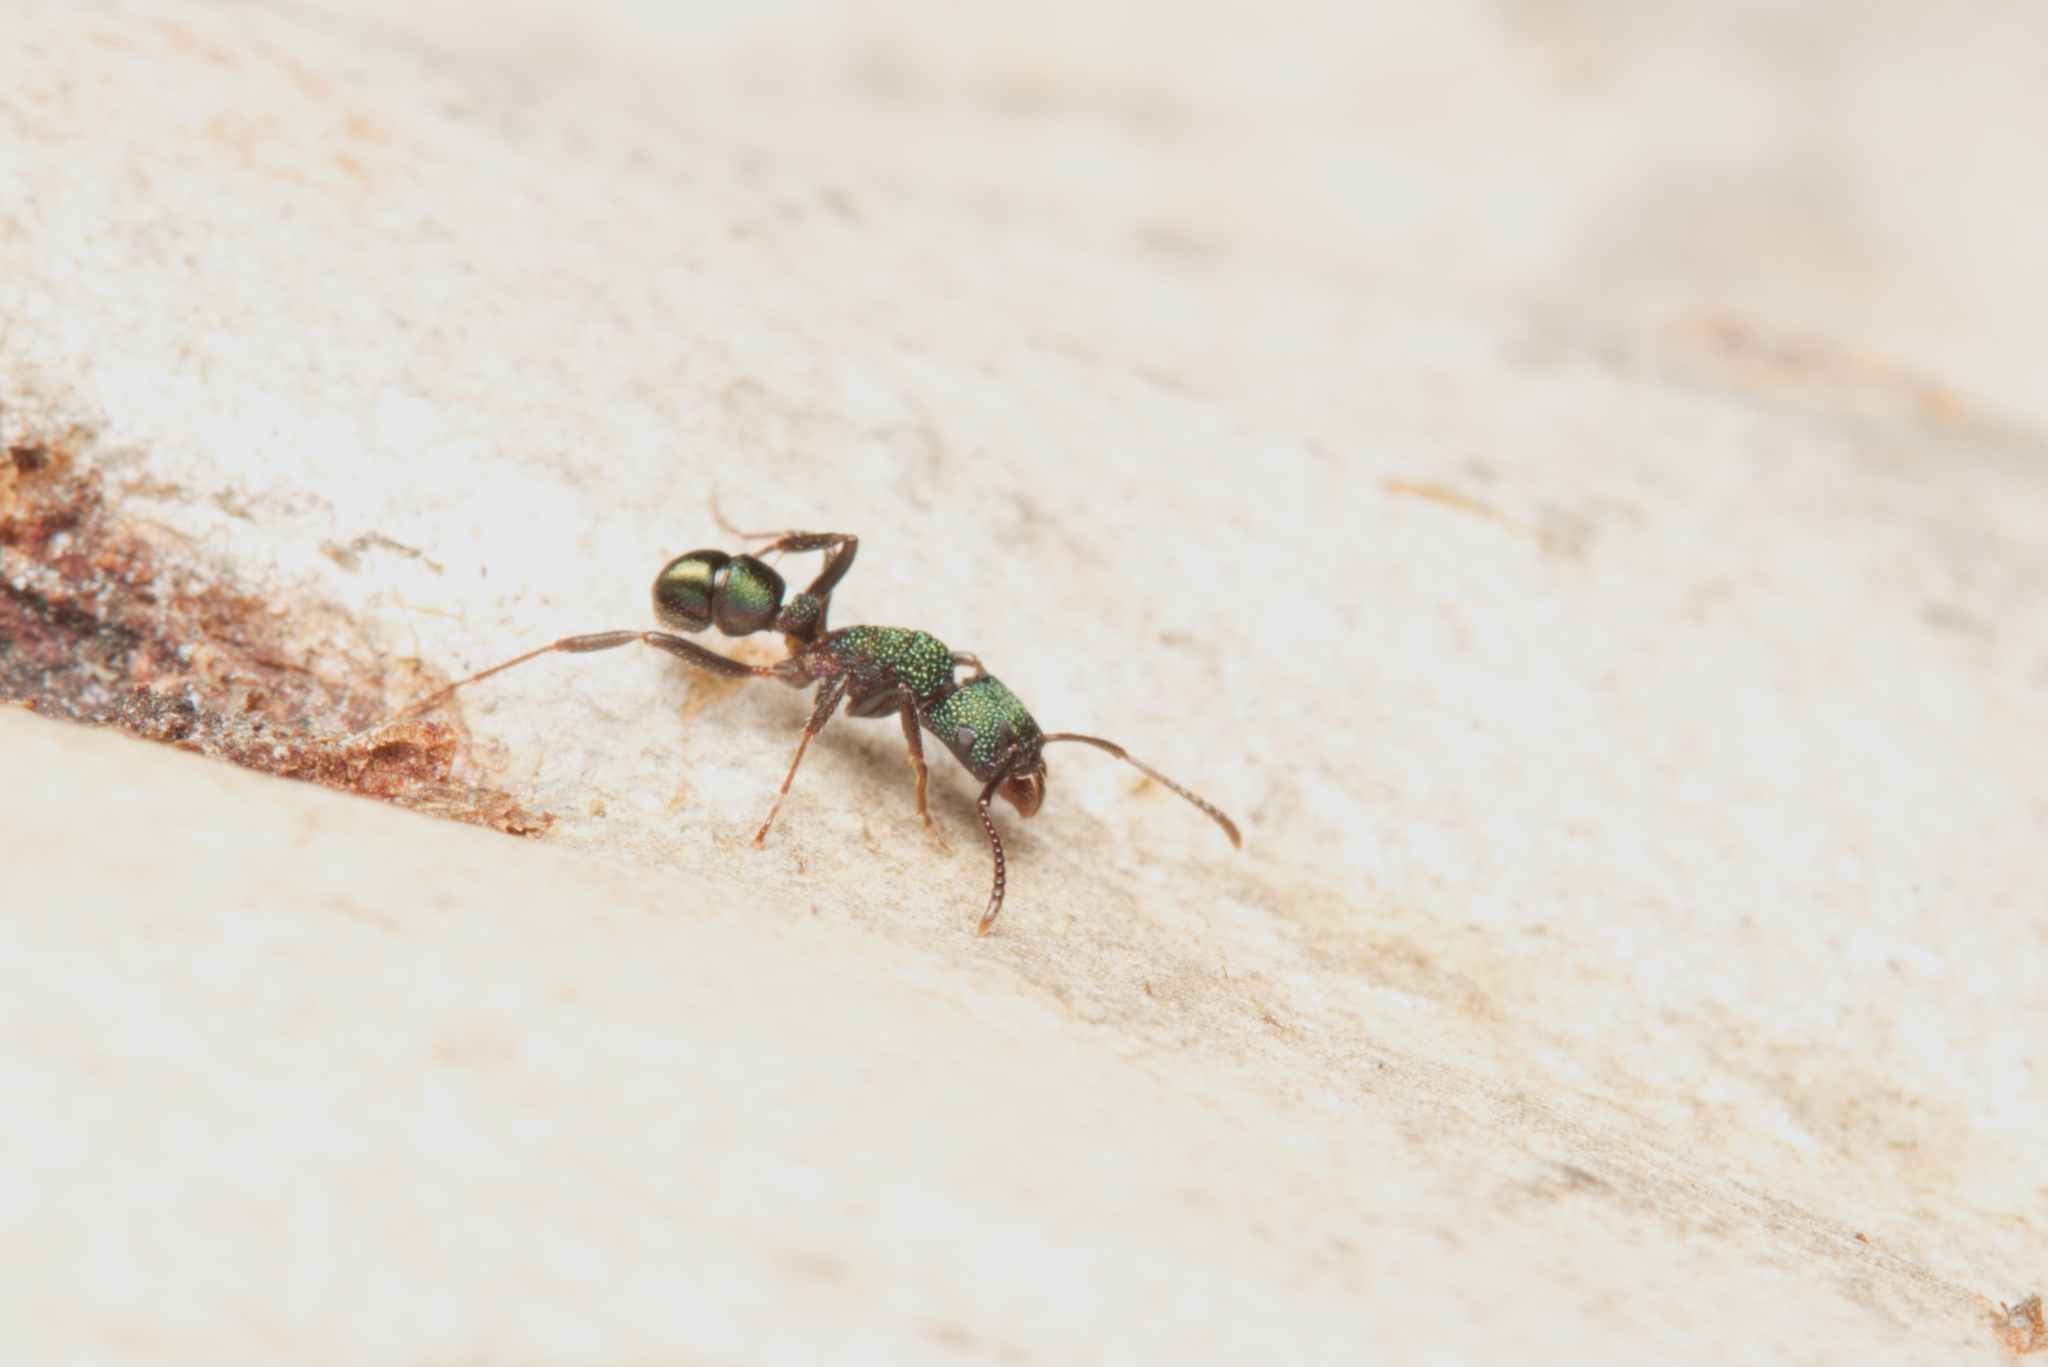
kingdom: Animalia
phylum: Arthropoda
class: Insecta
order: Hymenoptera
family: Formicidae
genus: Rhytidoponera
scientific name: Rhytidoponera metallica
